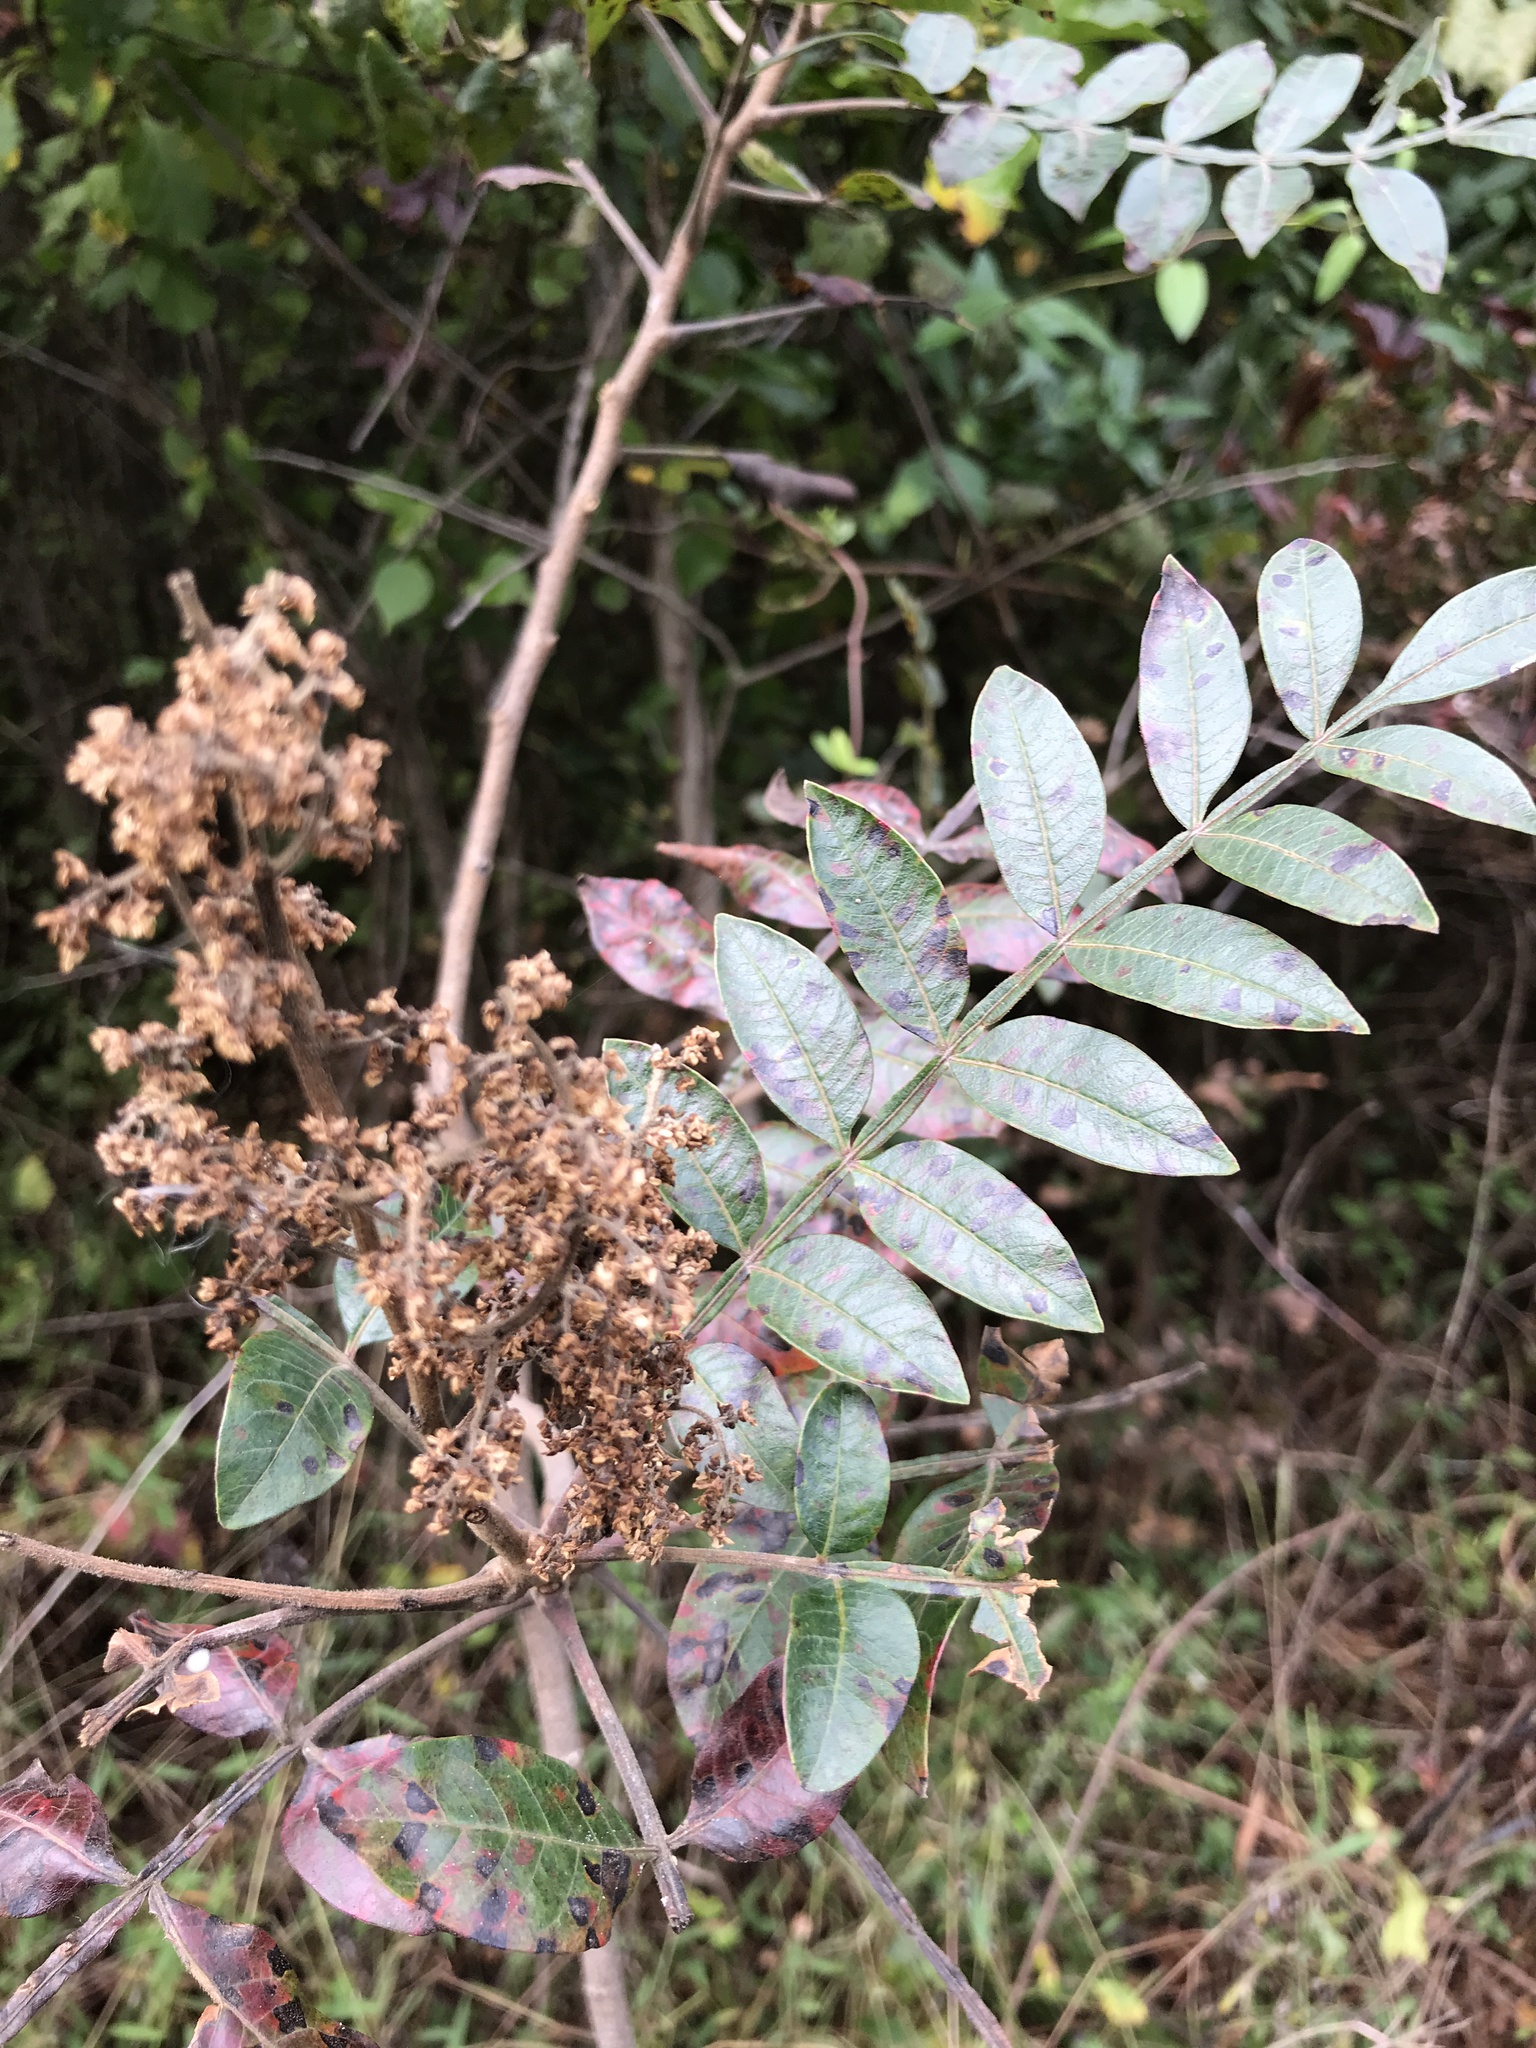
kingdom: Plantae
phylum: Tracheophyta
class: Magnoliopsida
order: Sapindales
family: Anacardiaceae
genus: Rhus
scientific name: Rhus copallina
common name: Shining sumac
